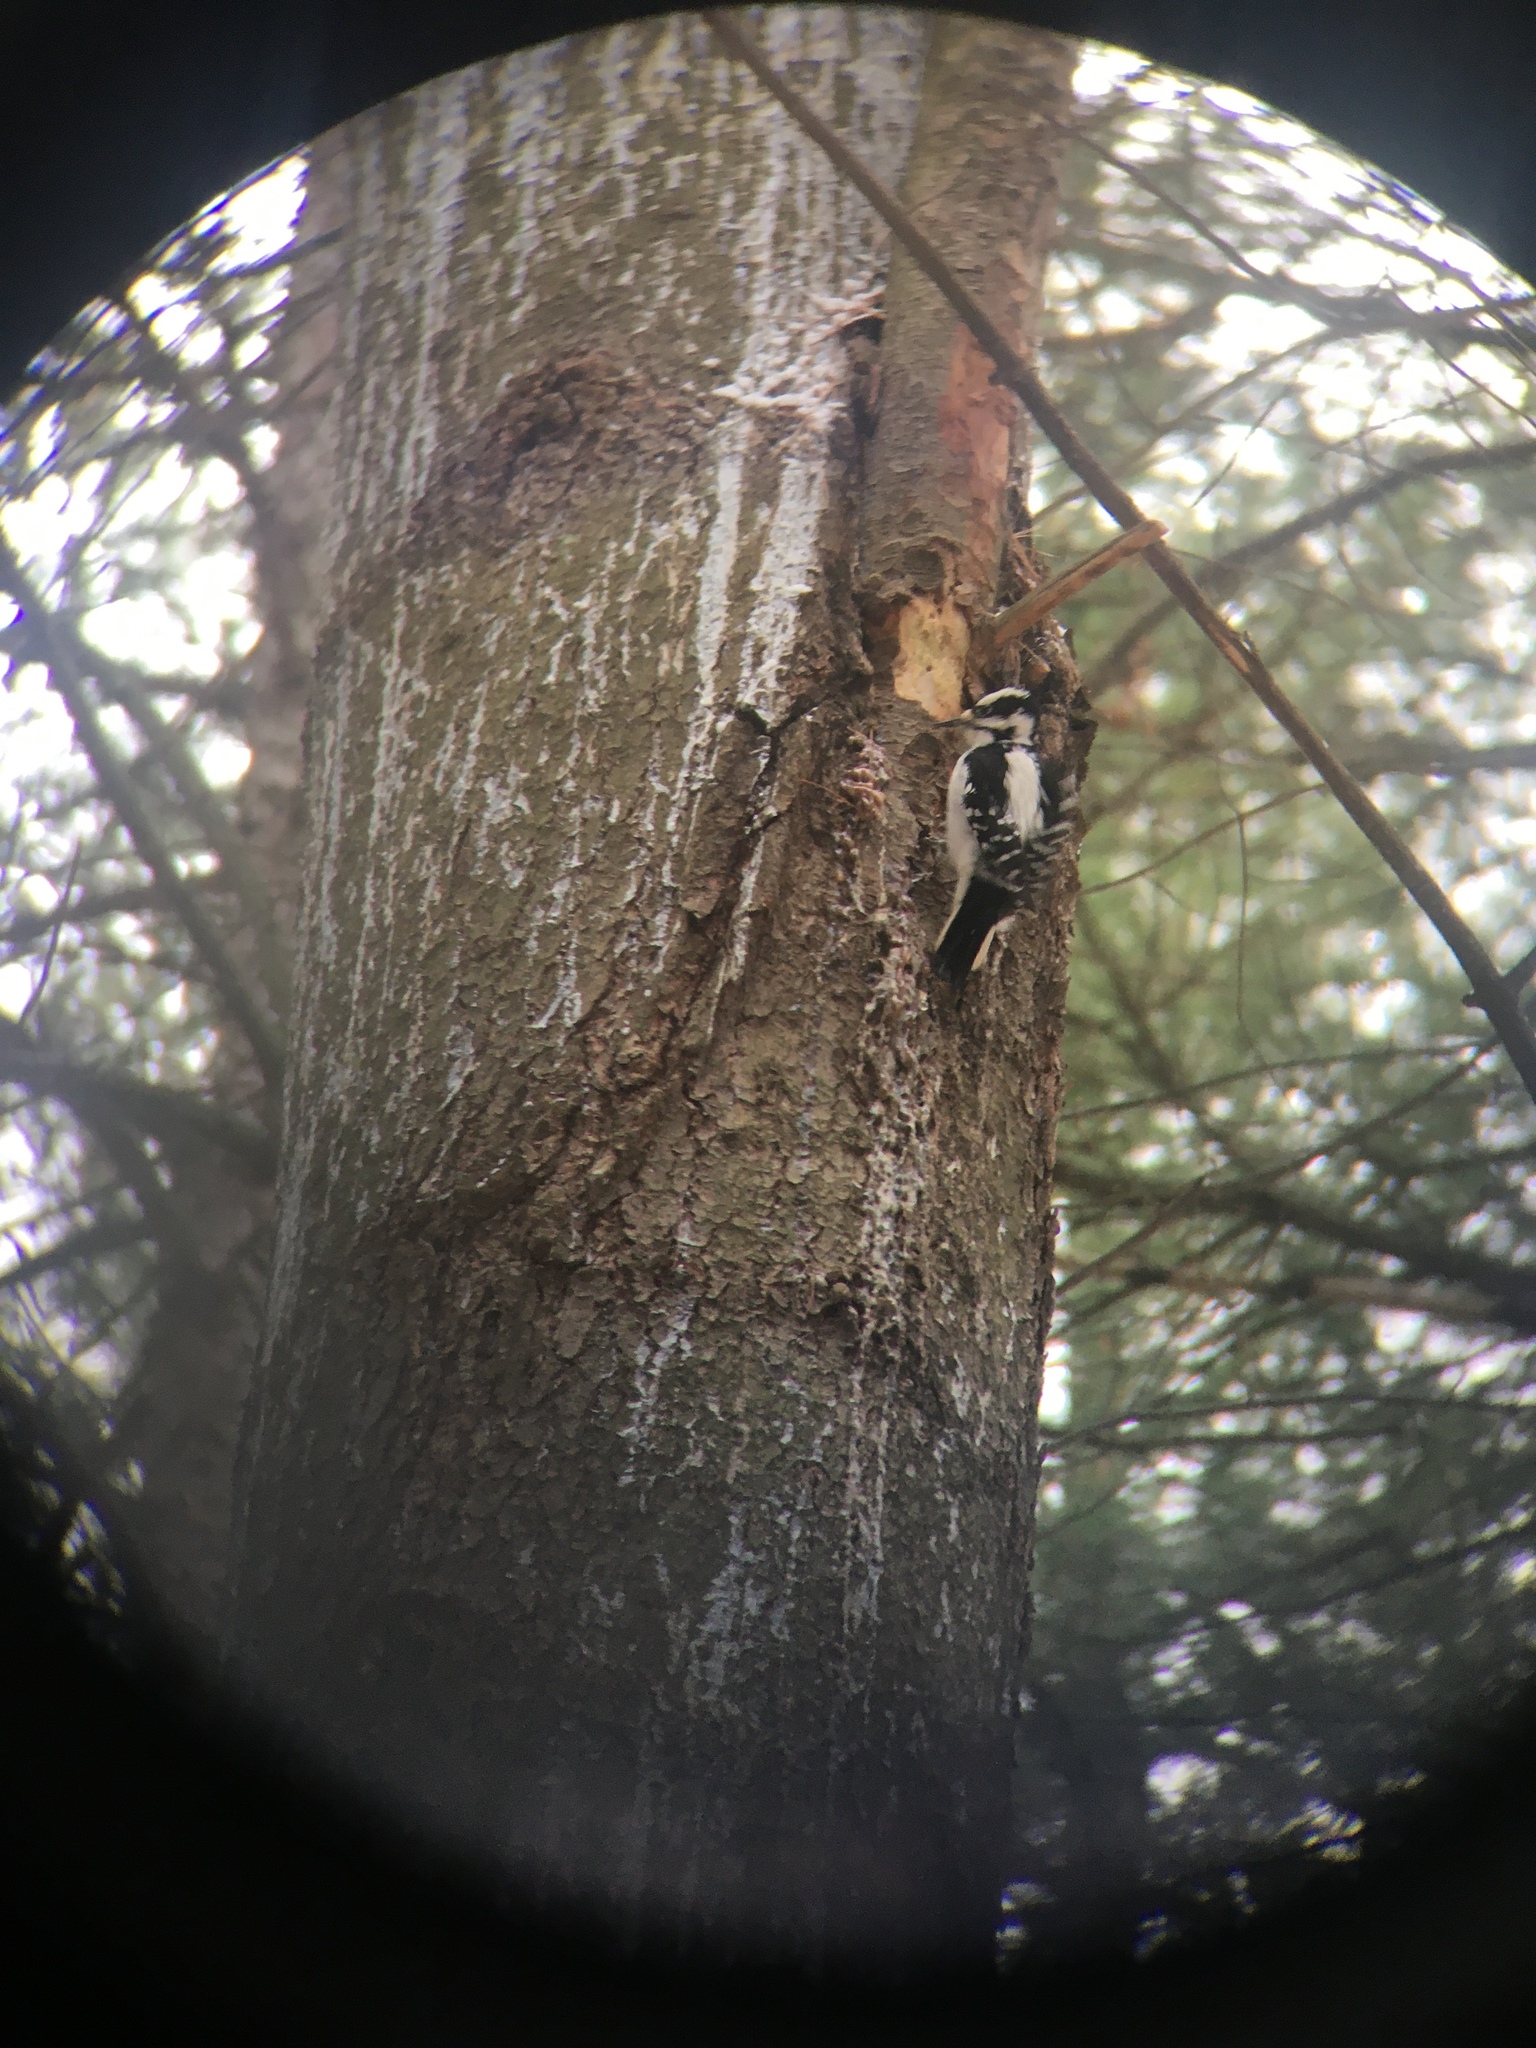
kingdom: Animalia
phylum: Chordata
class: Aves
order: Piciformes
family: Picidae
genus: Leuconotopicus
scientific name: Leuconotopicus villosus
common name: Hairy woodpecker
